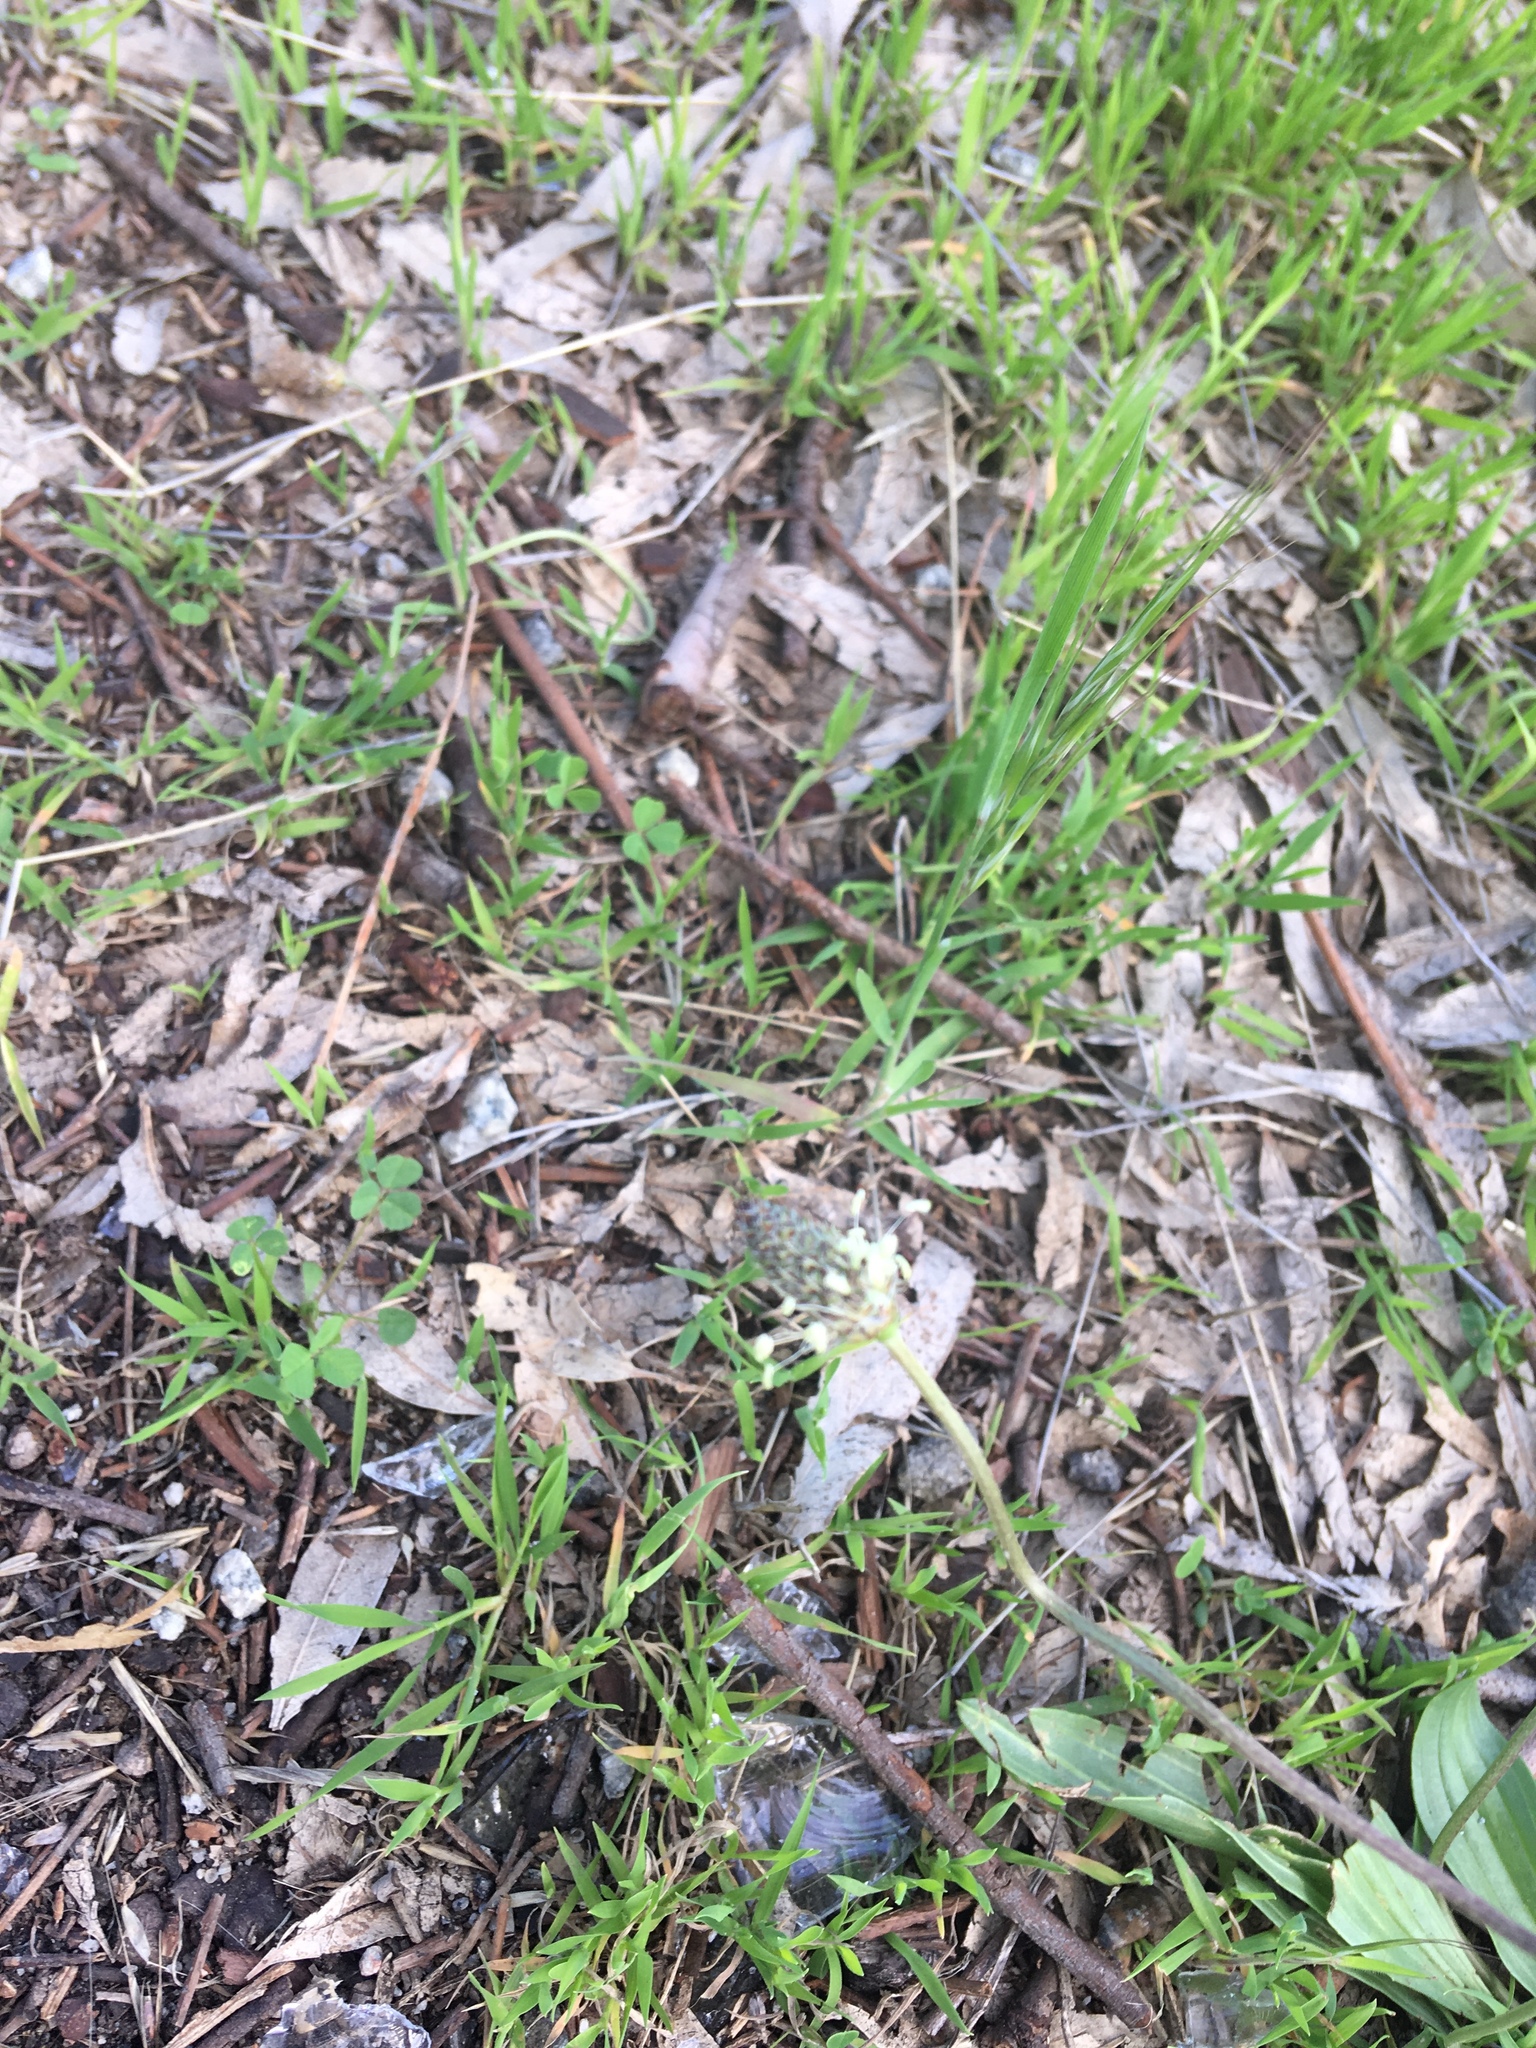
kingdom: Plantae
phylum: Tracheophyta
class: Magnoliopsida
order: Lamiales
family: Plantaginaceae
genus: Plantago
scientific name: Plantago lanceolata
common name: Ribwort plantain
